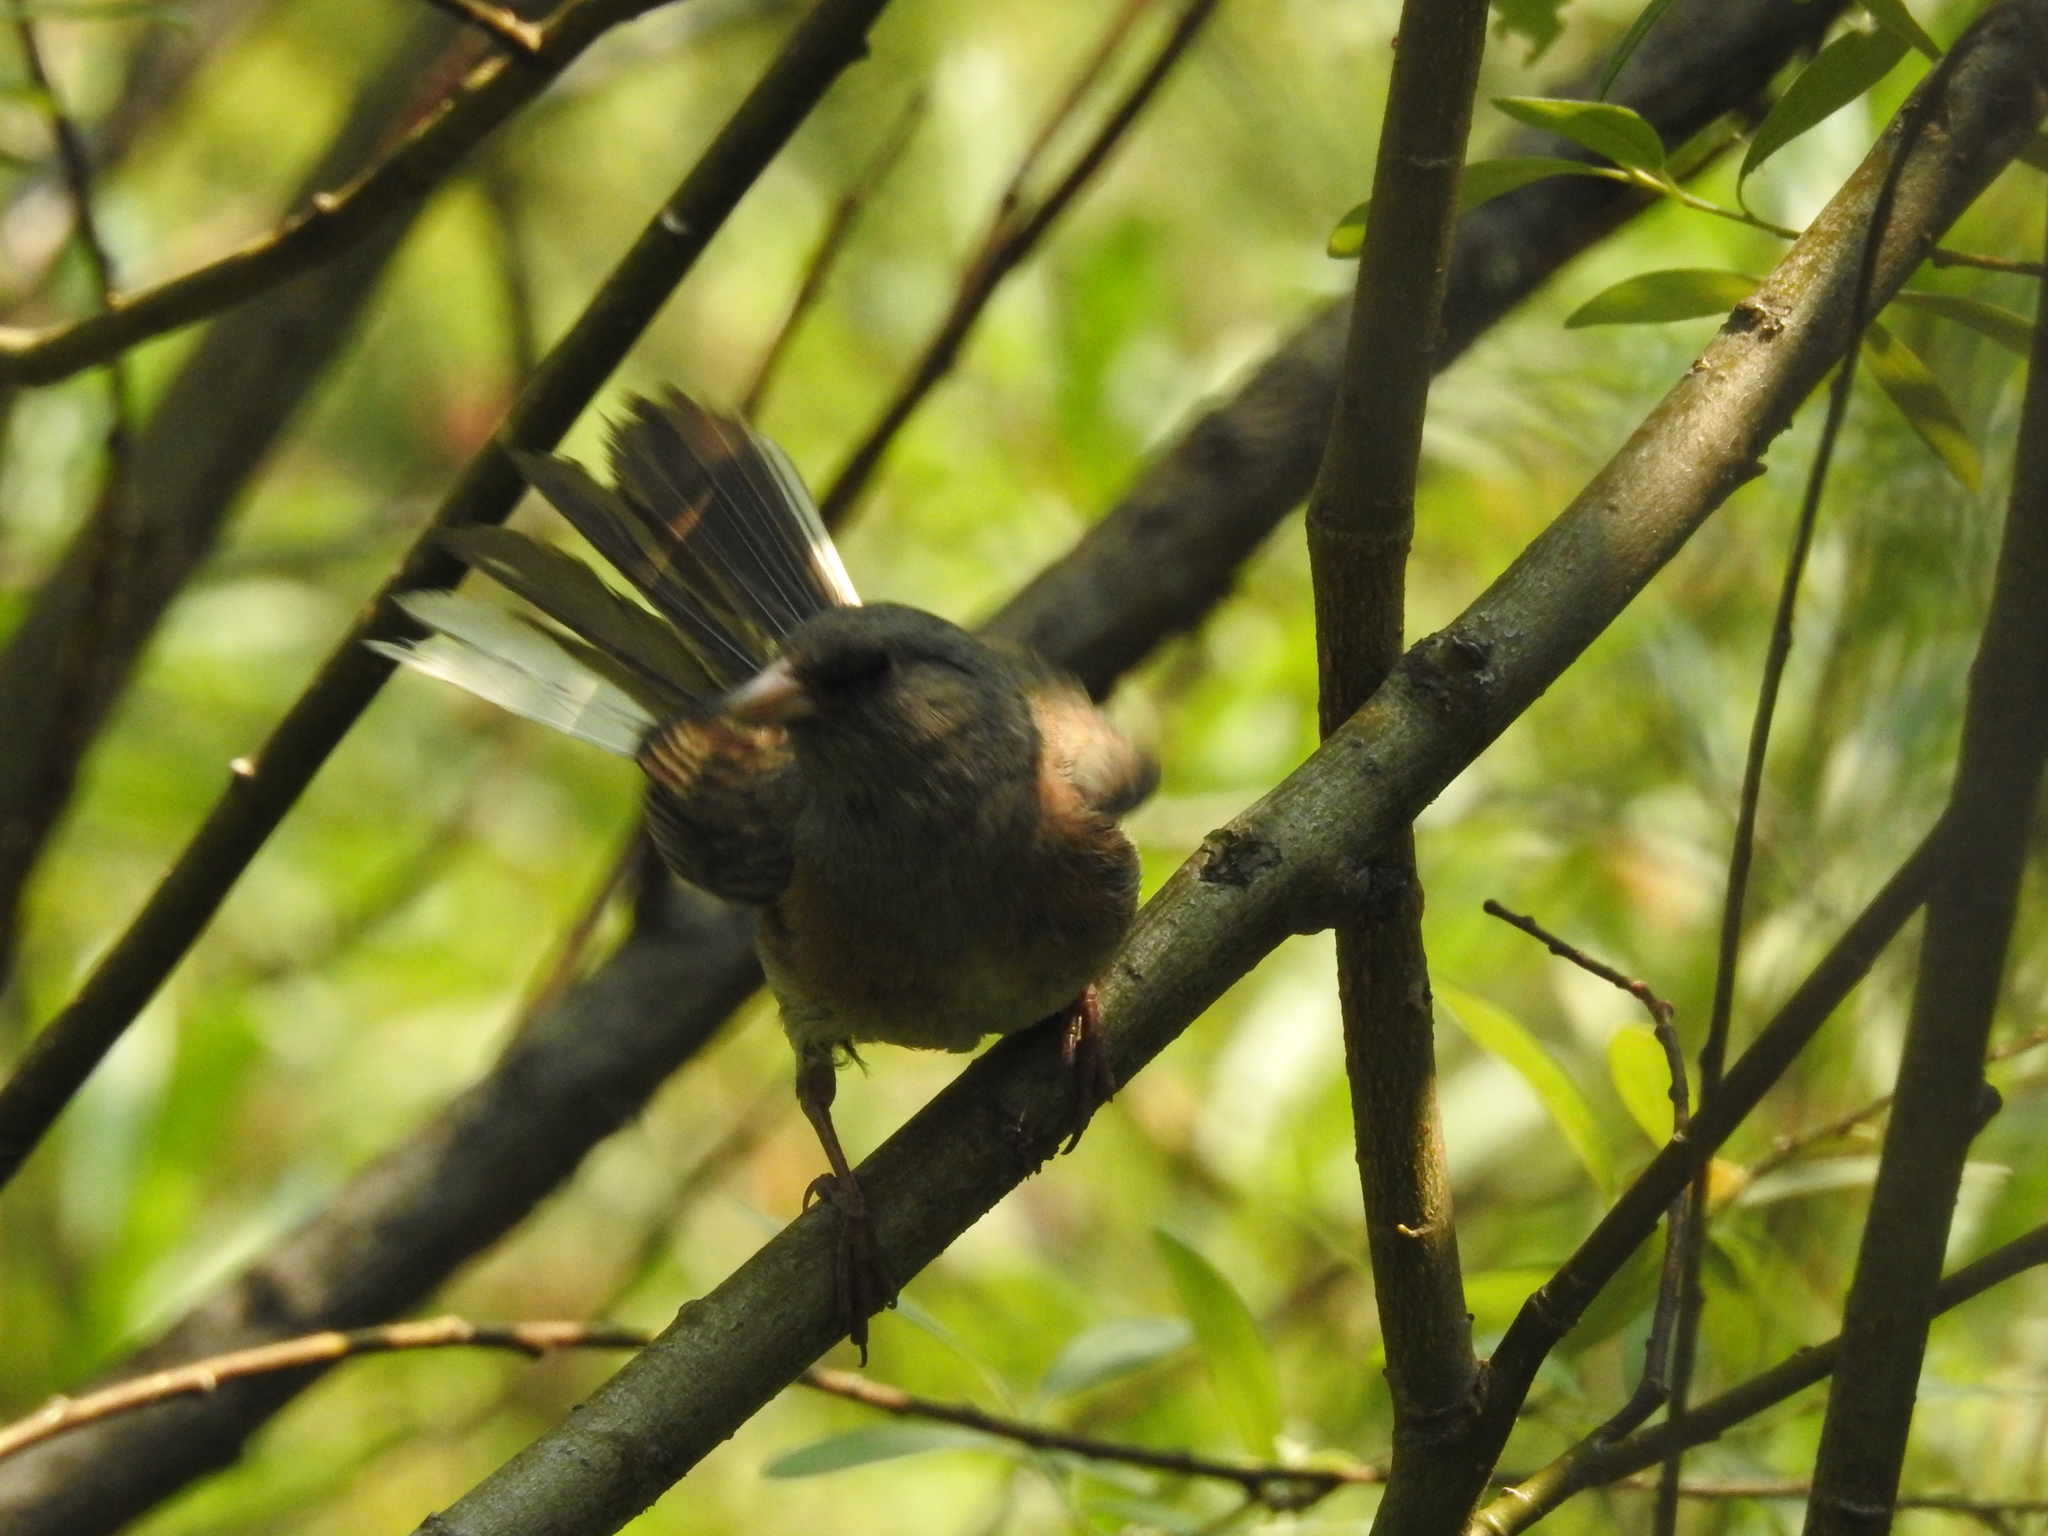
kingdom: Animalia
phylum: Chordata
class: Aves
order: Passeriformes
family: Passerellidae
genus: Junco
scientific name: Junco hyemalis
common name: Dark-eyed junco
